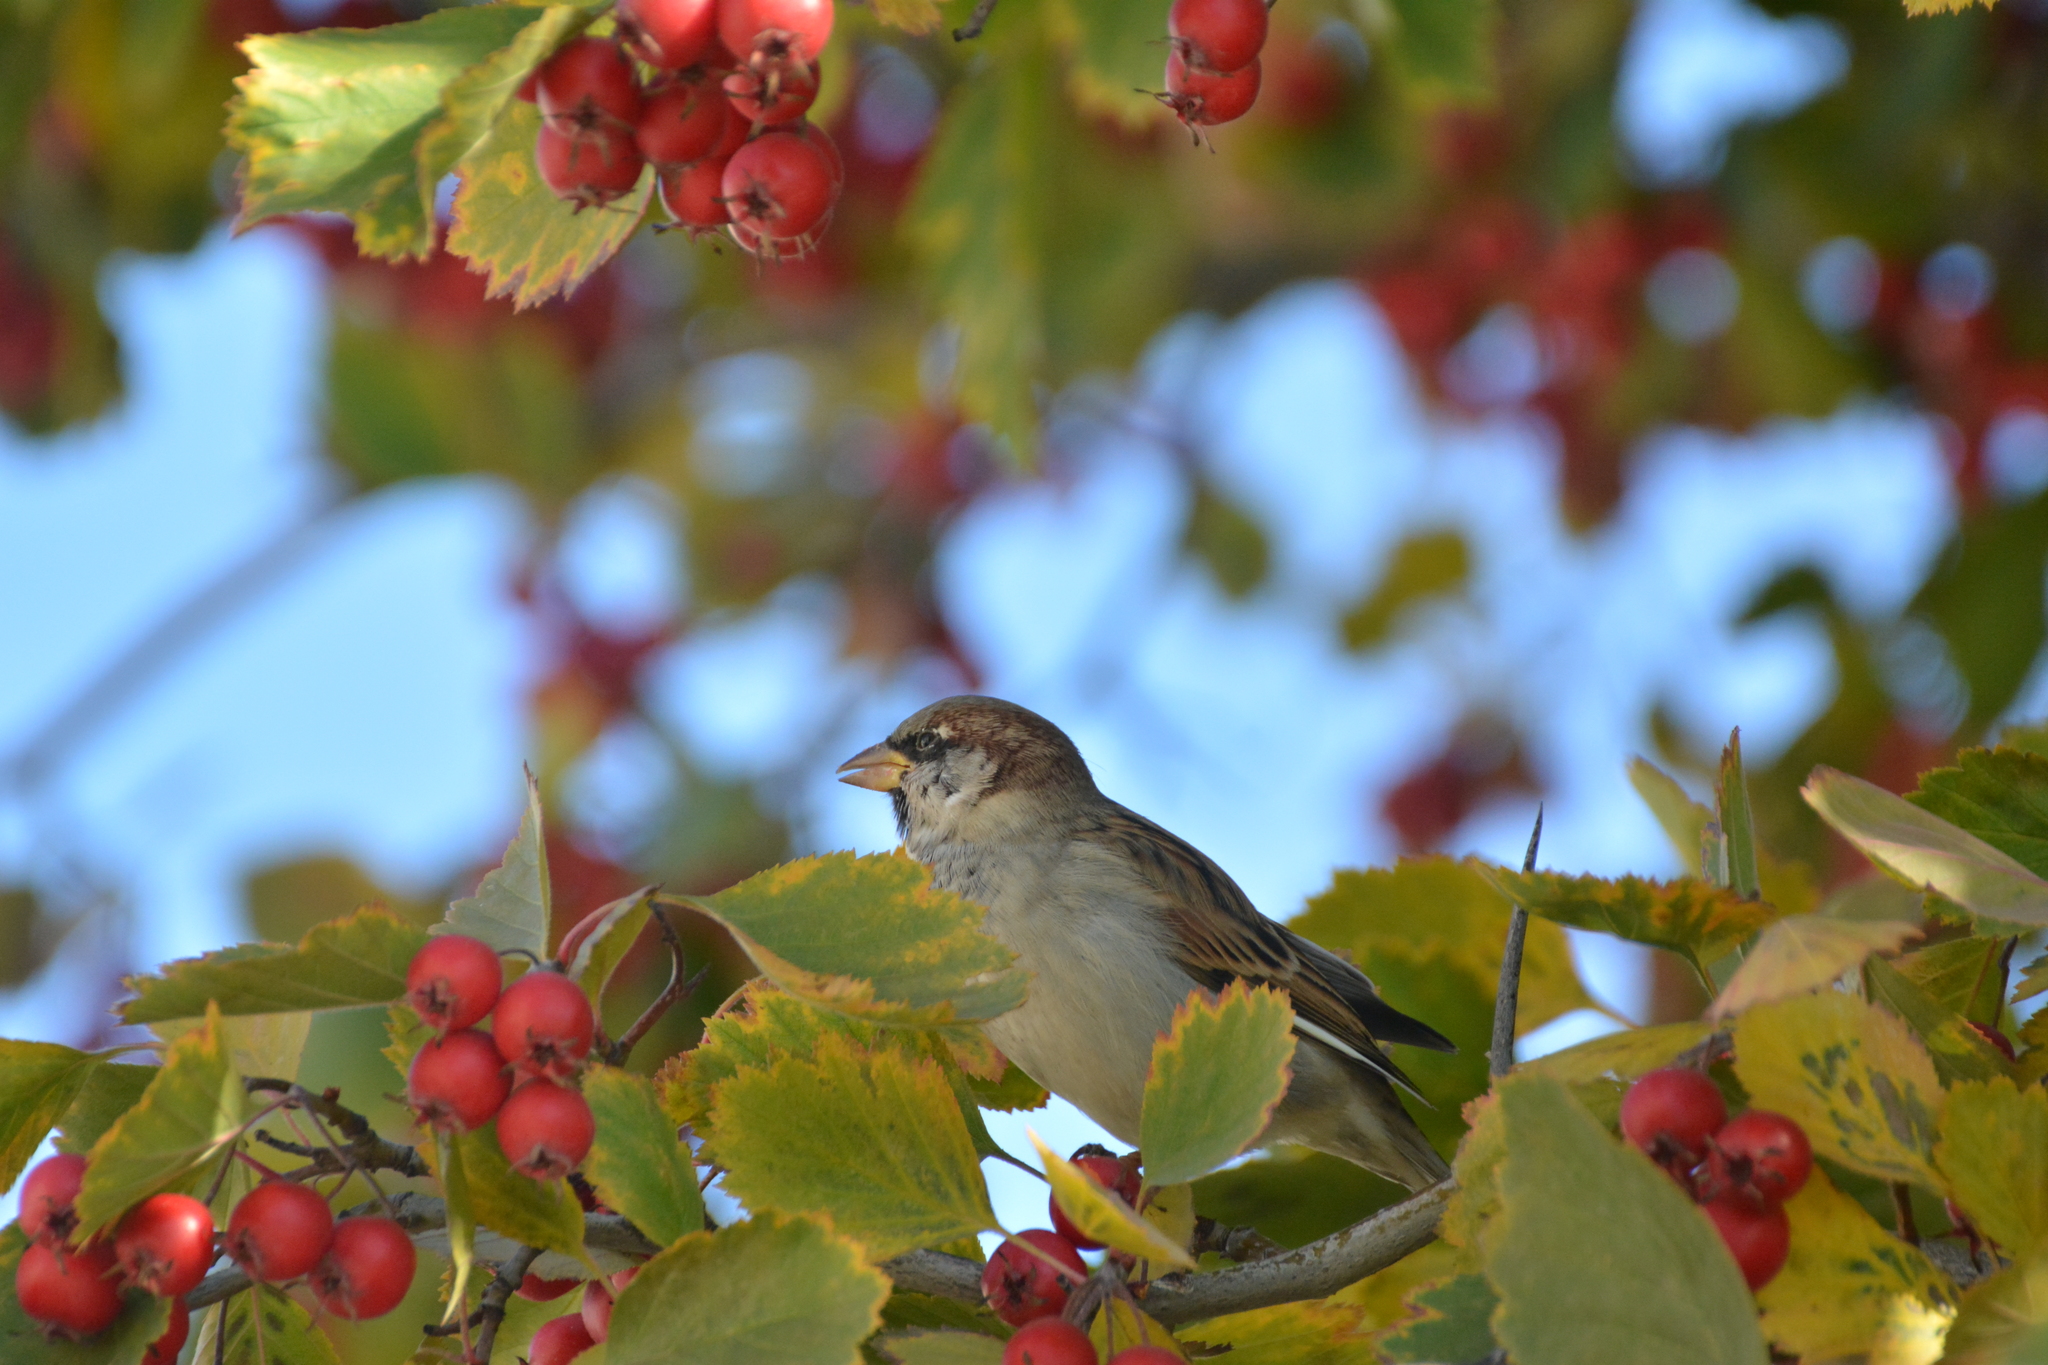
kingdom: Animalia
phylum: Chordata
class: Aves
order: Passeriformes
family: Passeridae
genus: Passer
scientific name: Passer domesticus
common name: House sparrow
